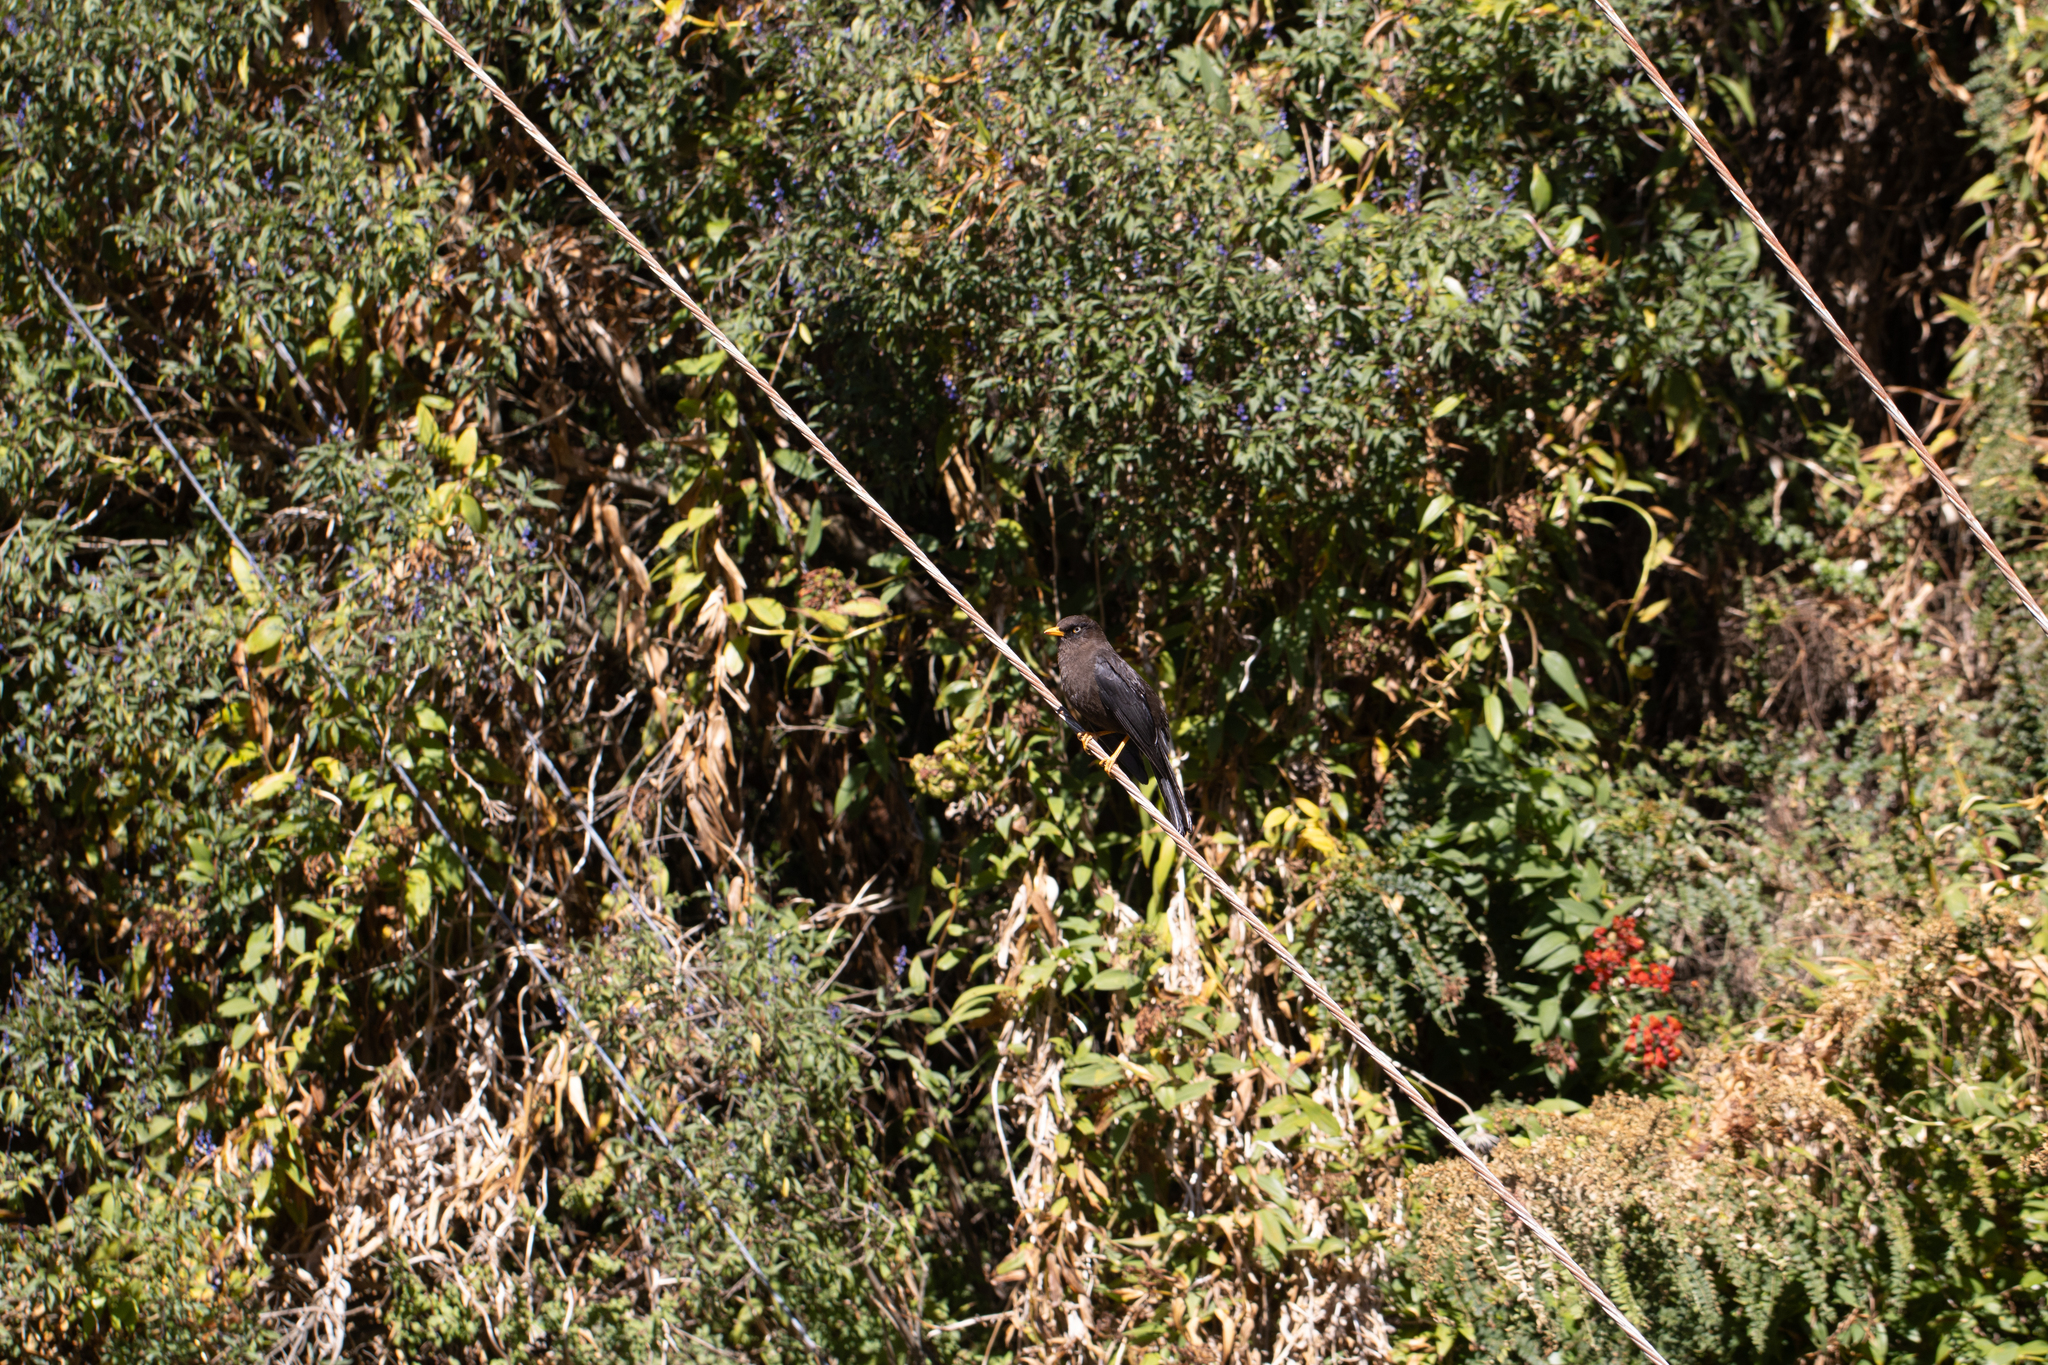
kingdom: Animalia
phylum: Chordata
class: Aves
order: Passeriformes
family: Turdidae
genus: Turdus
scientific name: Turdus nigrescens
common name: Sooty thrush
